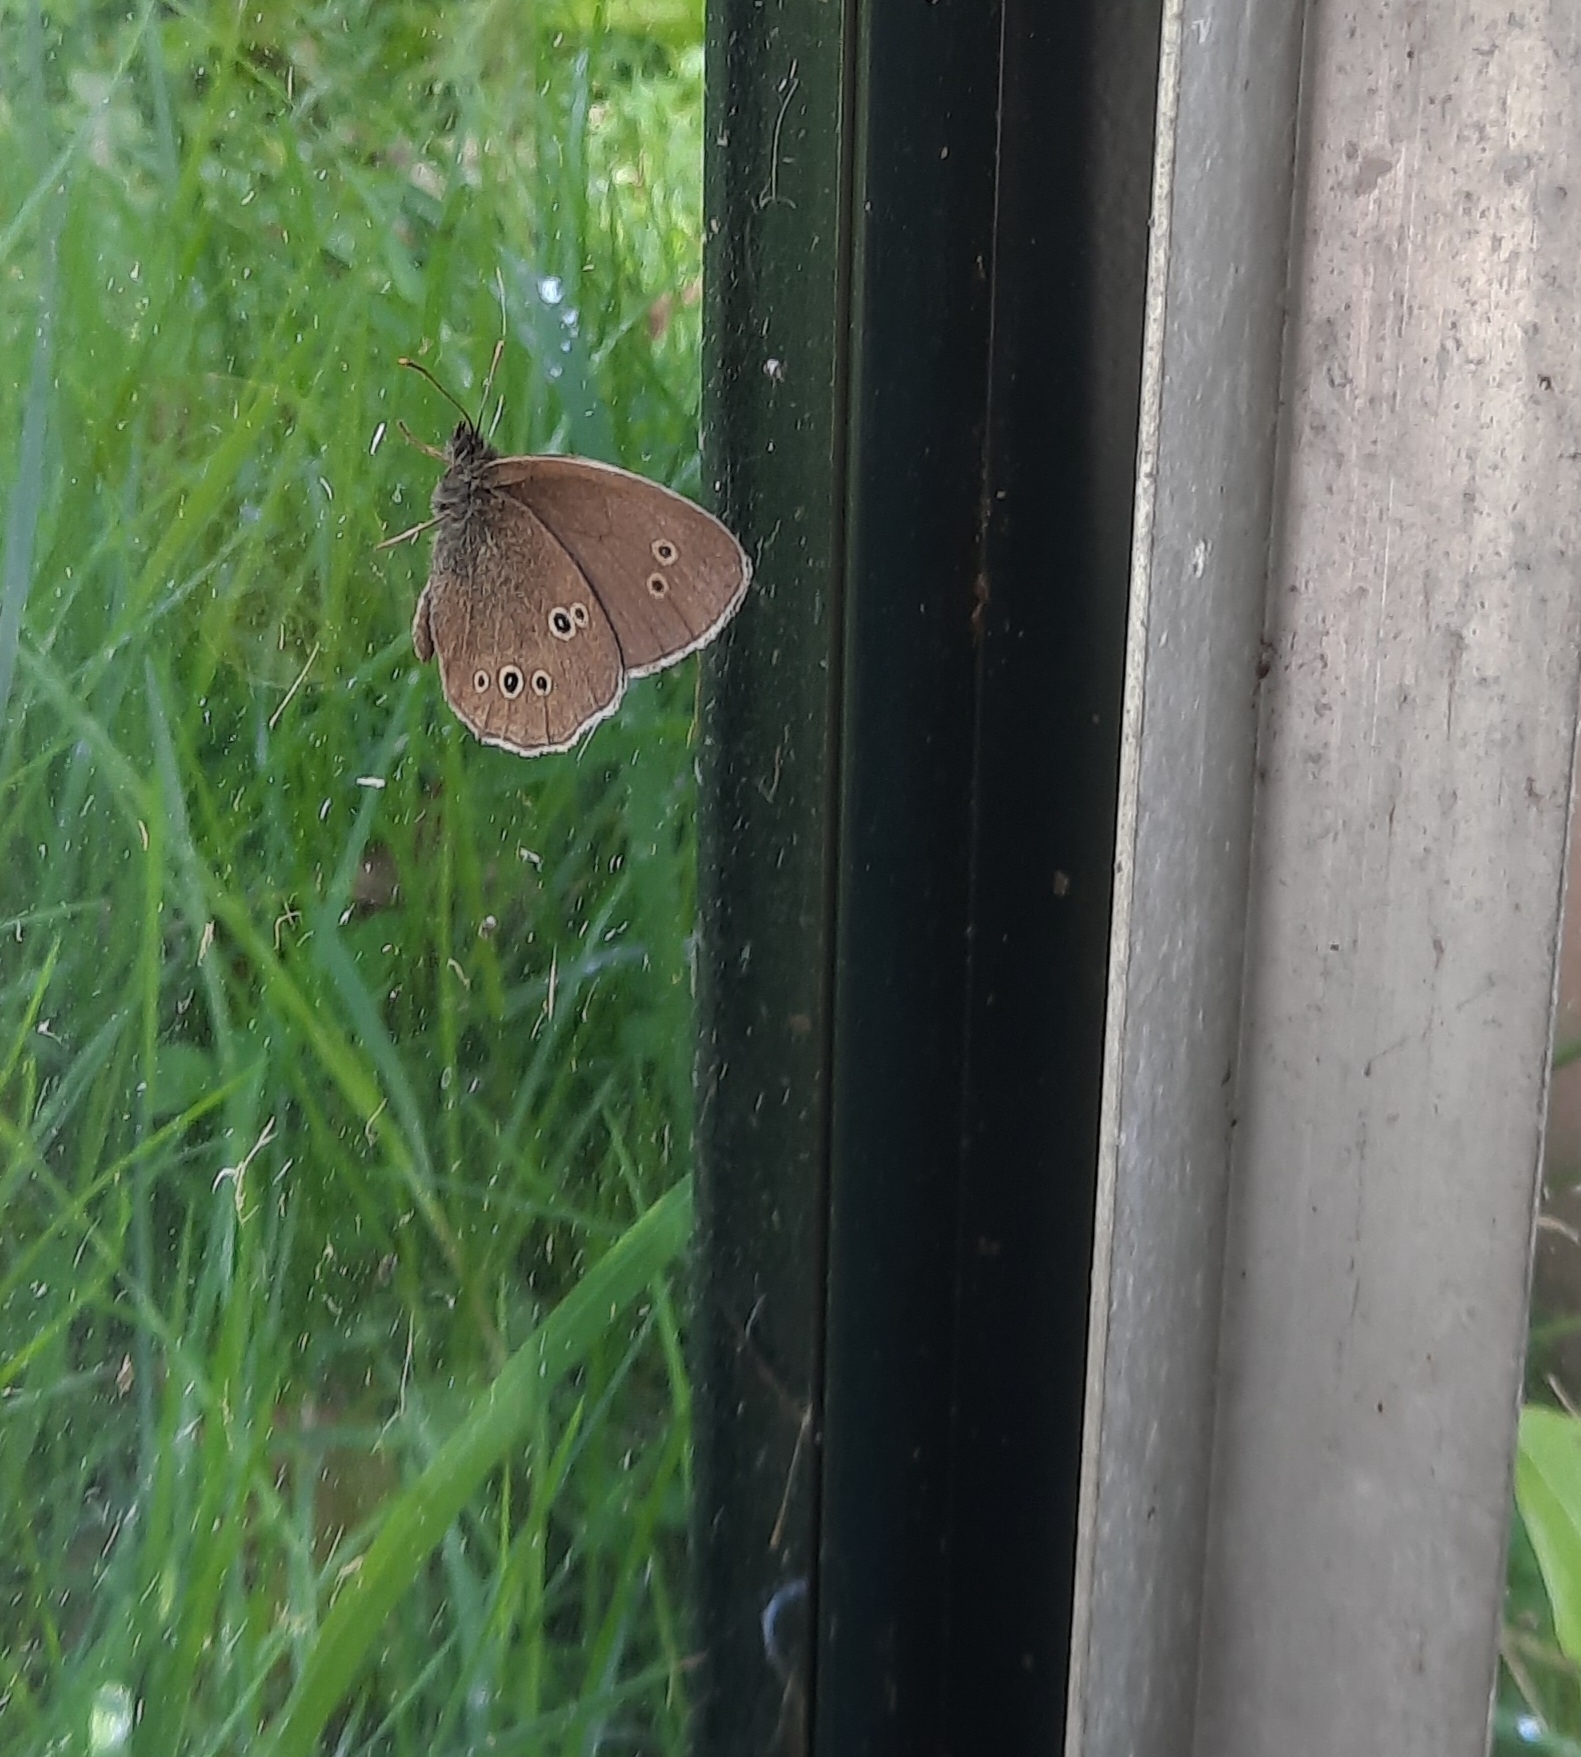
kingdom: Animalia
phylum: Arthropoda
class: Insecta
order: Lepidoptera
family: Nymphalidae
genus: Aphantopus
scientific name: Aphantopus hyperantus
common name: Ringlet
